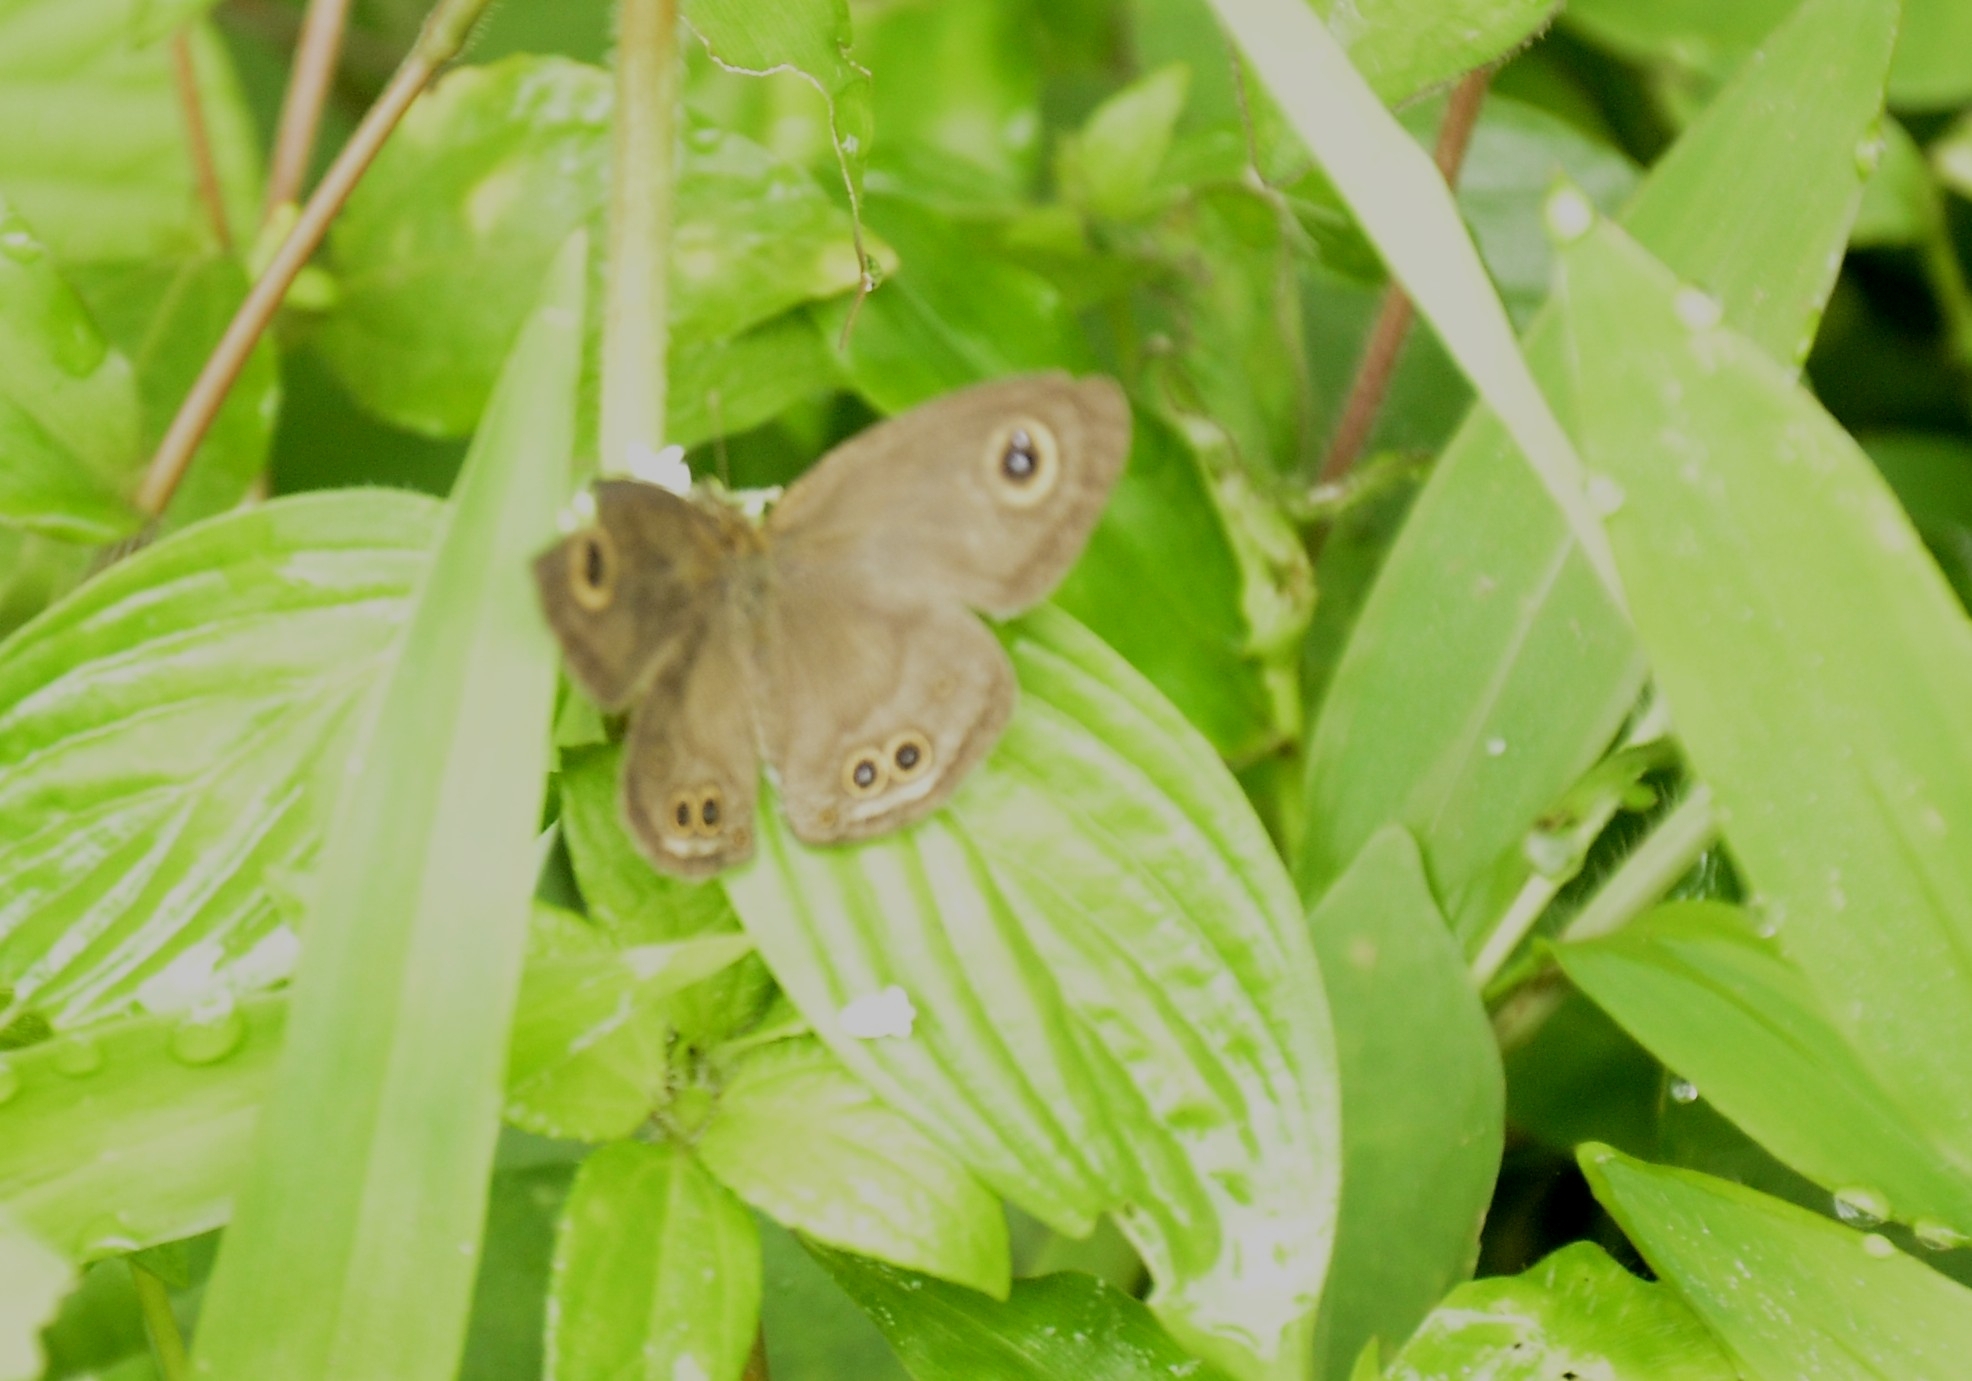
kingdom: Animalia
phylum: Arthropoda
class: Insecta
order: Lepidoptera
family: Nymphalidae
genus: Ypthima
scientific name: Ypthima baldus
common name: Common five-ring
